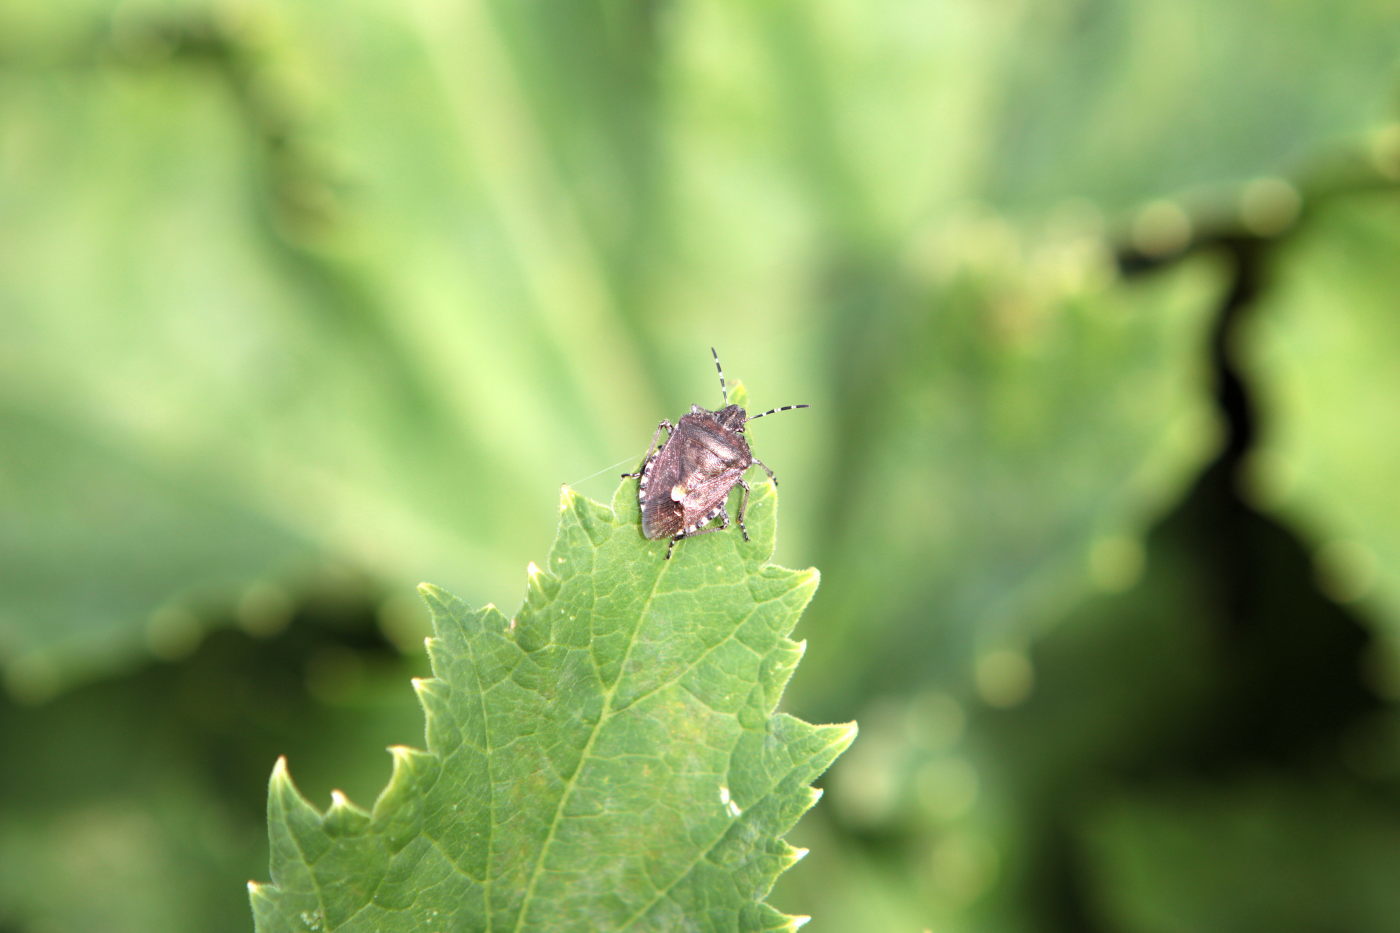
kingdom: Animalia
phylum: Arthropoda
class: Insecta
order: Hemiptera
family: Pentatomidae
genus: Dolycoris
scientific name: Dolycoris baccarum
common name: Sloe bug
